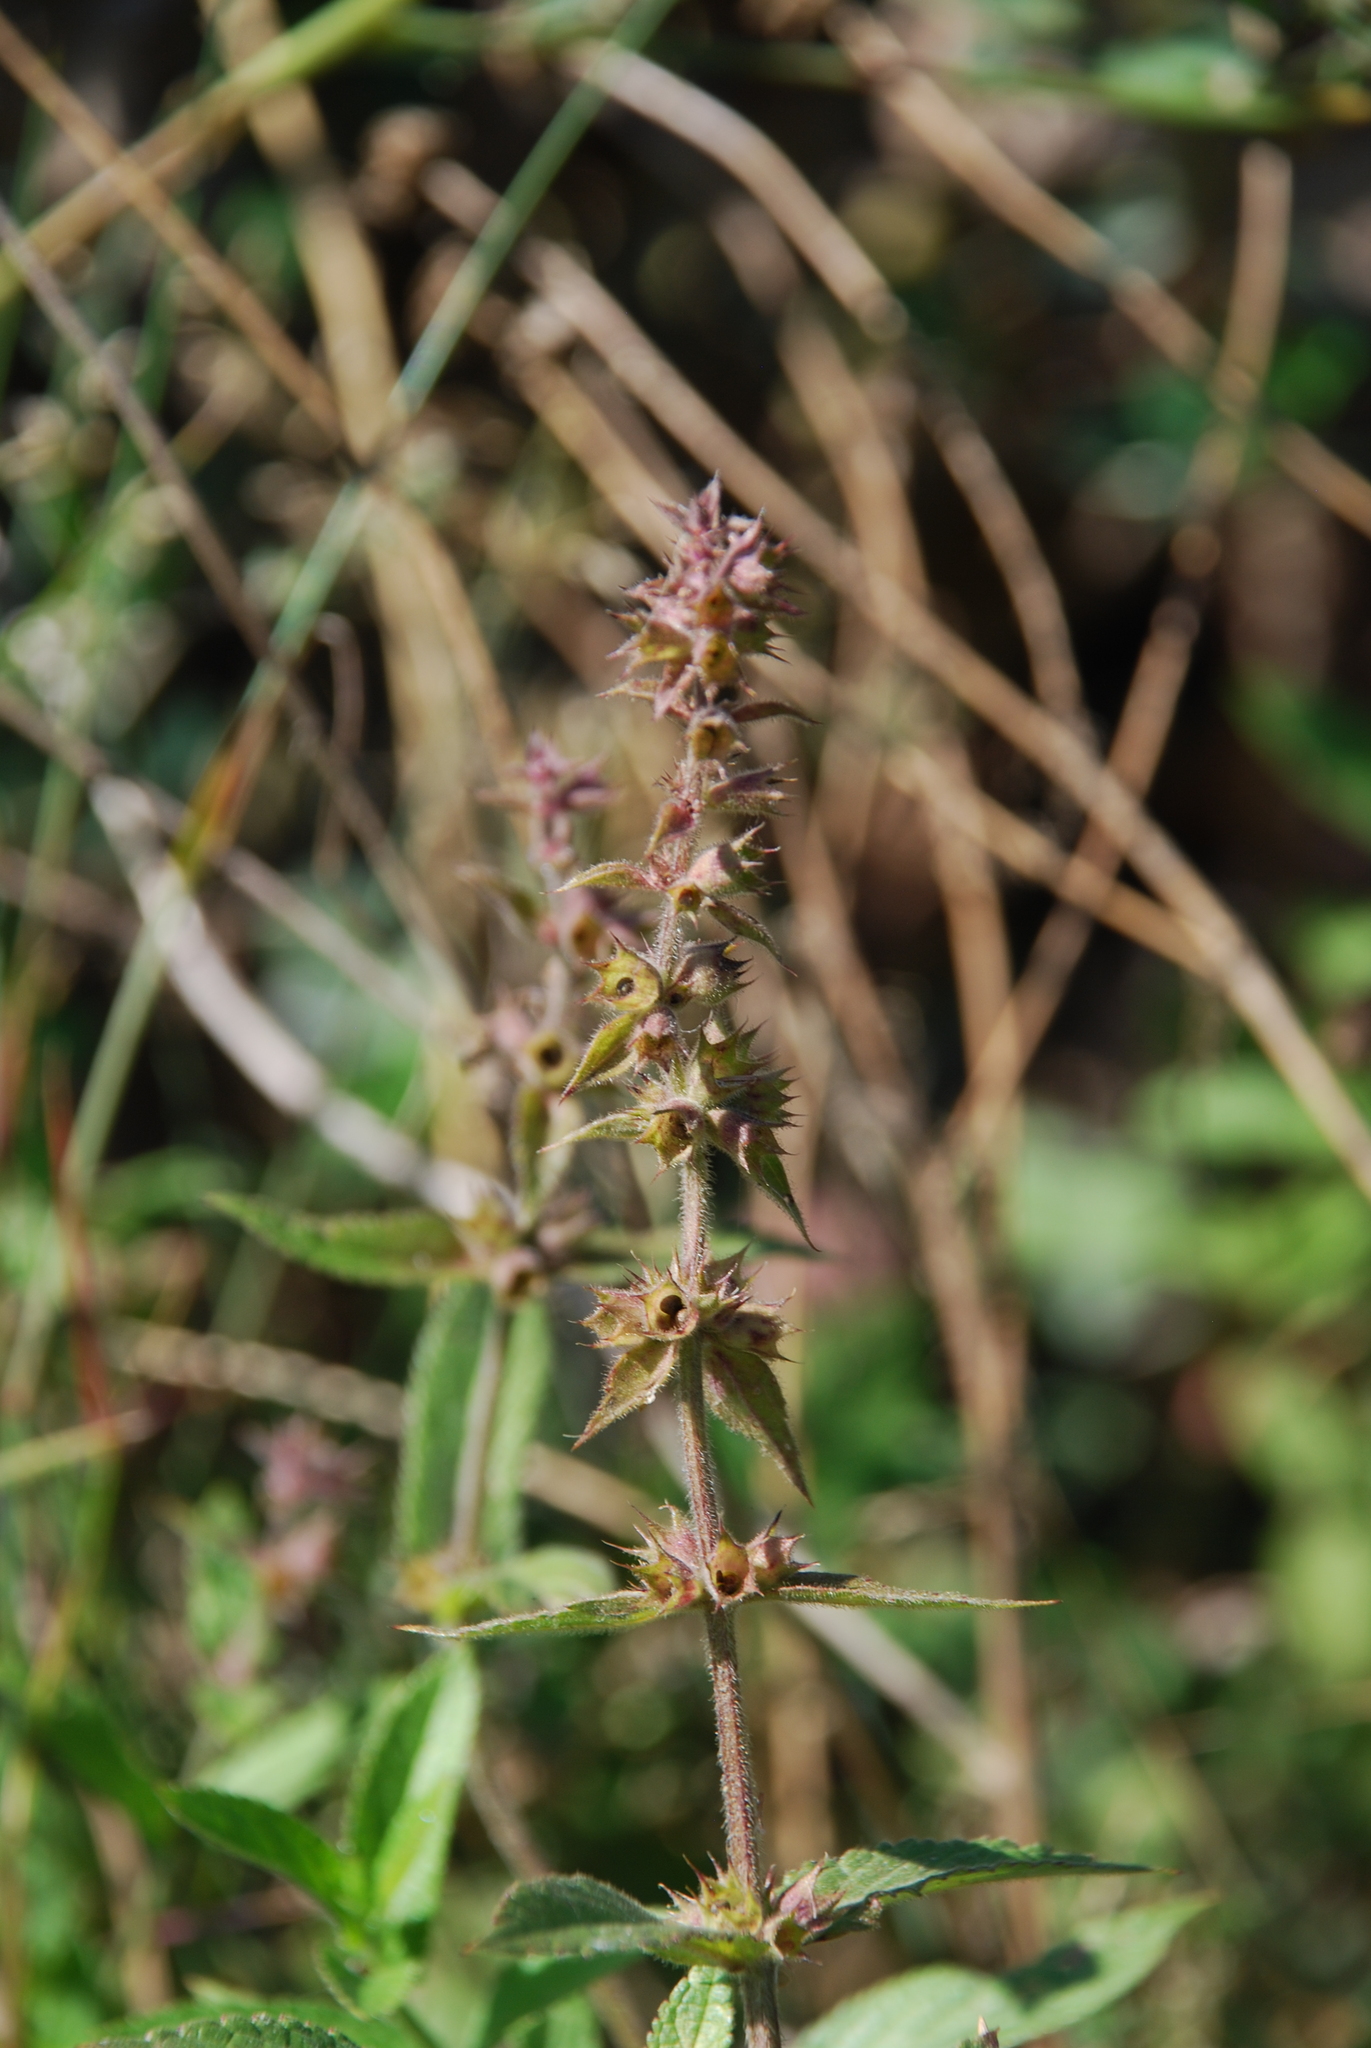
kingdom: Plantae
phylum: Tracheophyta
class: Magnoliopsida
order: Lamiales
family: Lamiaceae
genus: Stachys
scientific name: Stachys palustris
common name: Marsh woundwort
